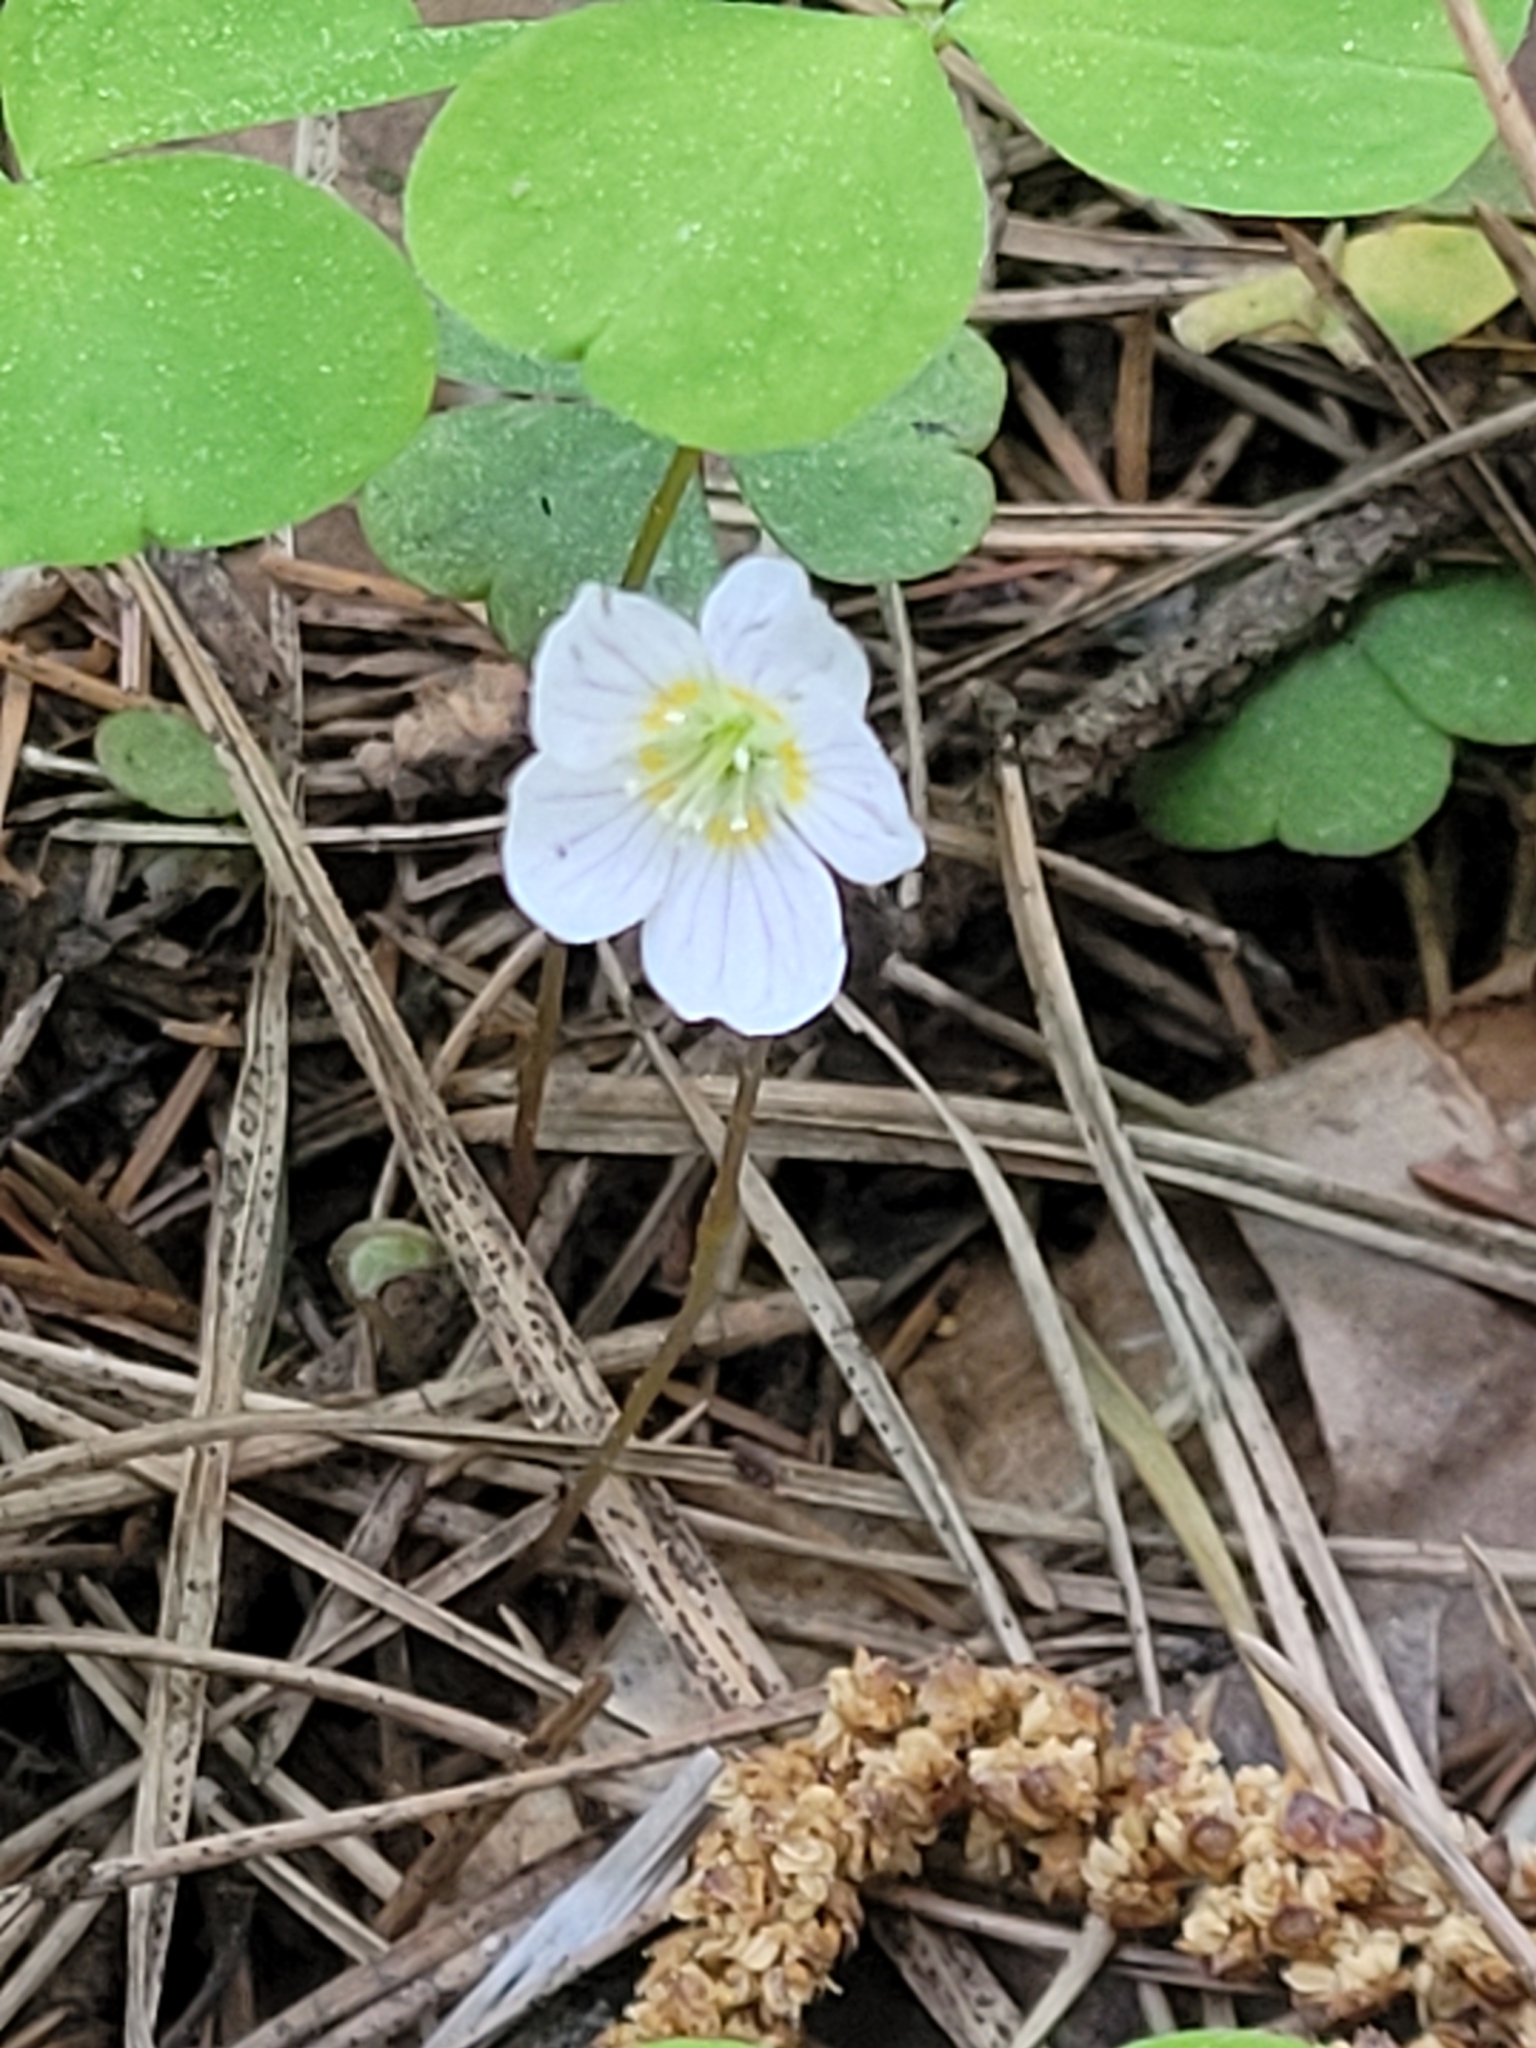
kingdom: Plantae
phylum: Tracheophyta
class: Magnoliopsida
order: Oxalidales
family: Oxalidaceae
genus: Oxalis
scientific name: Oxalis acetosella
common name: Wood-sorrel
